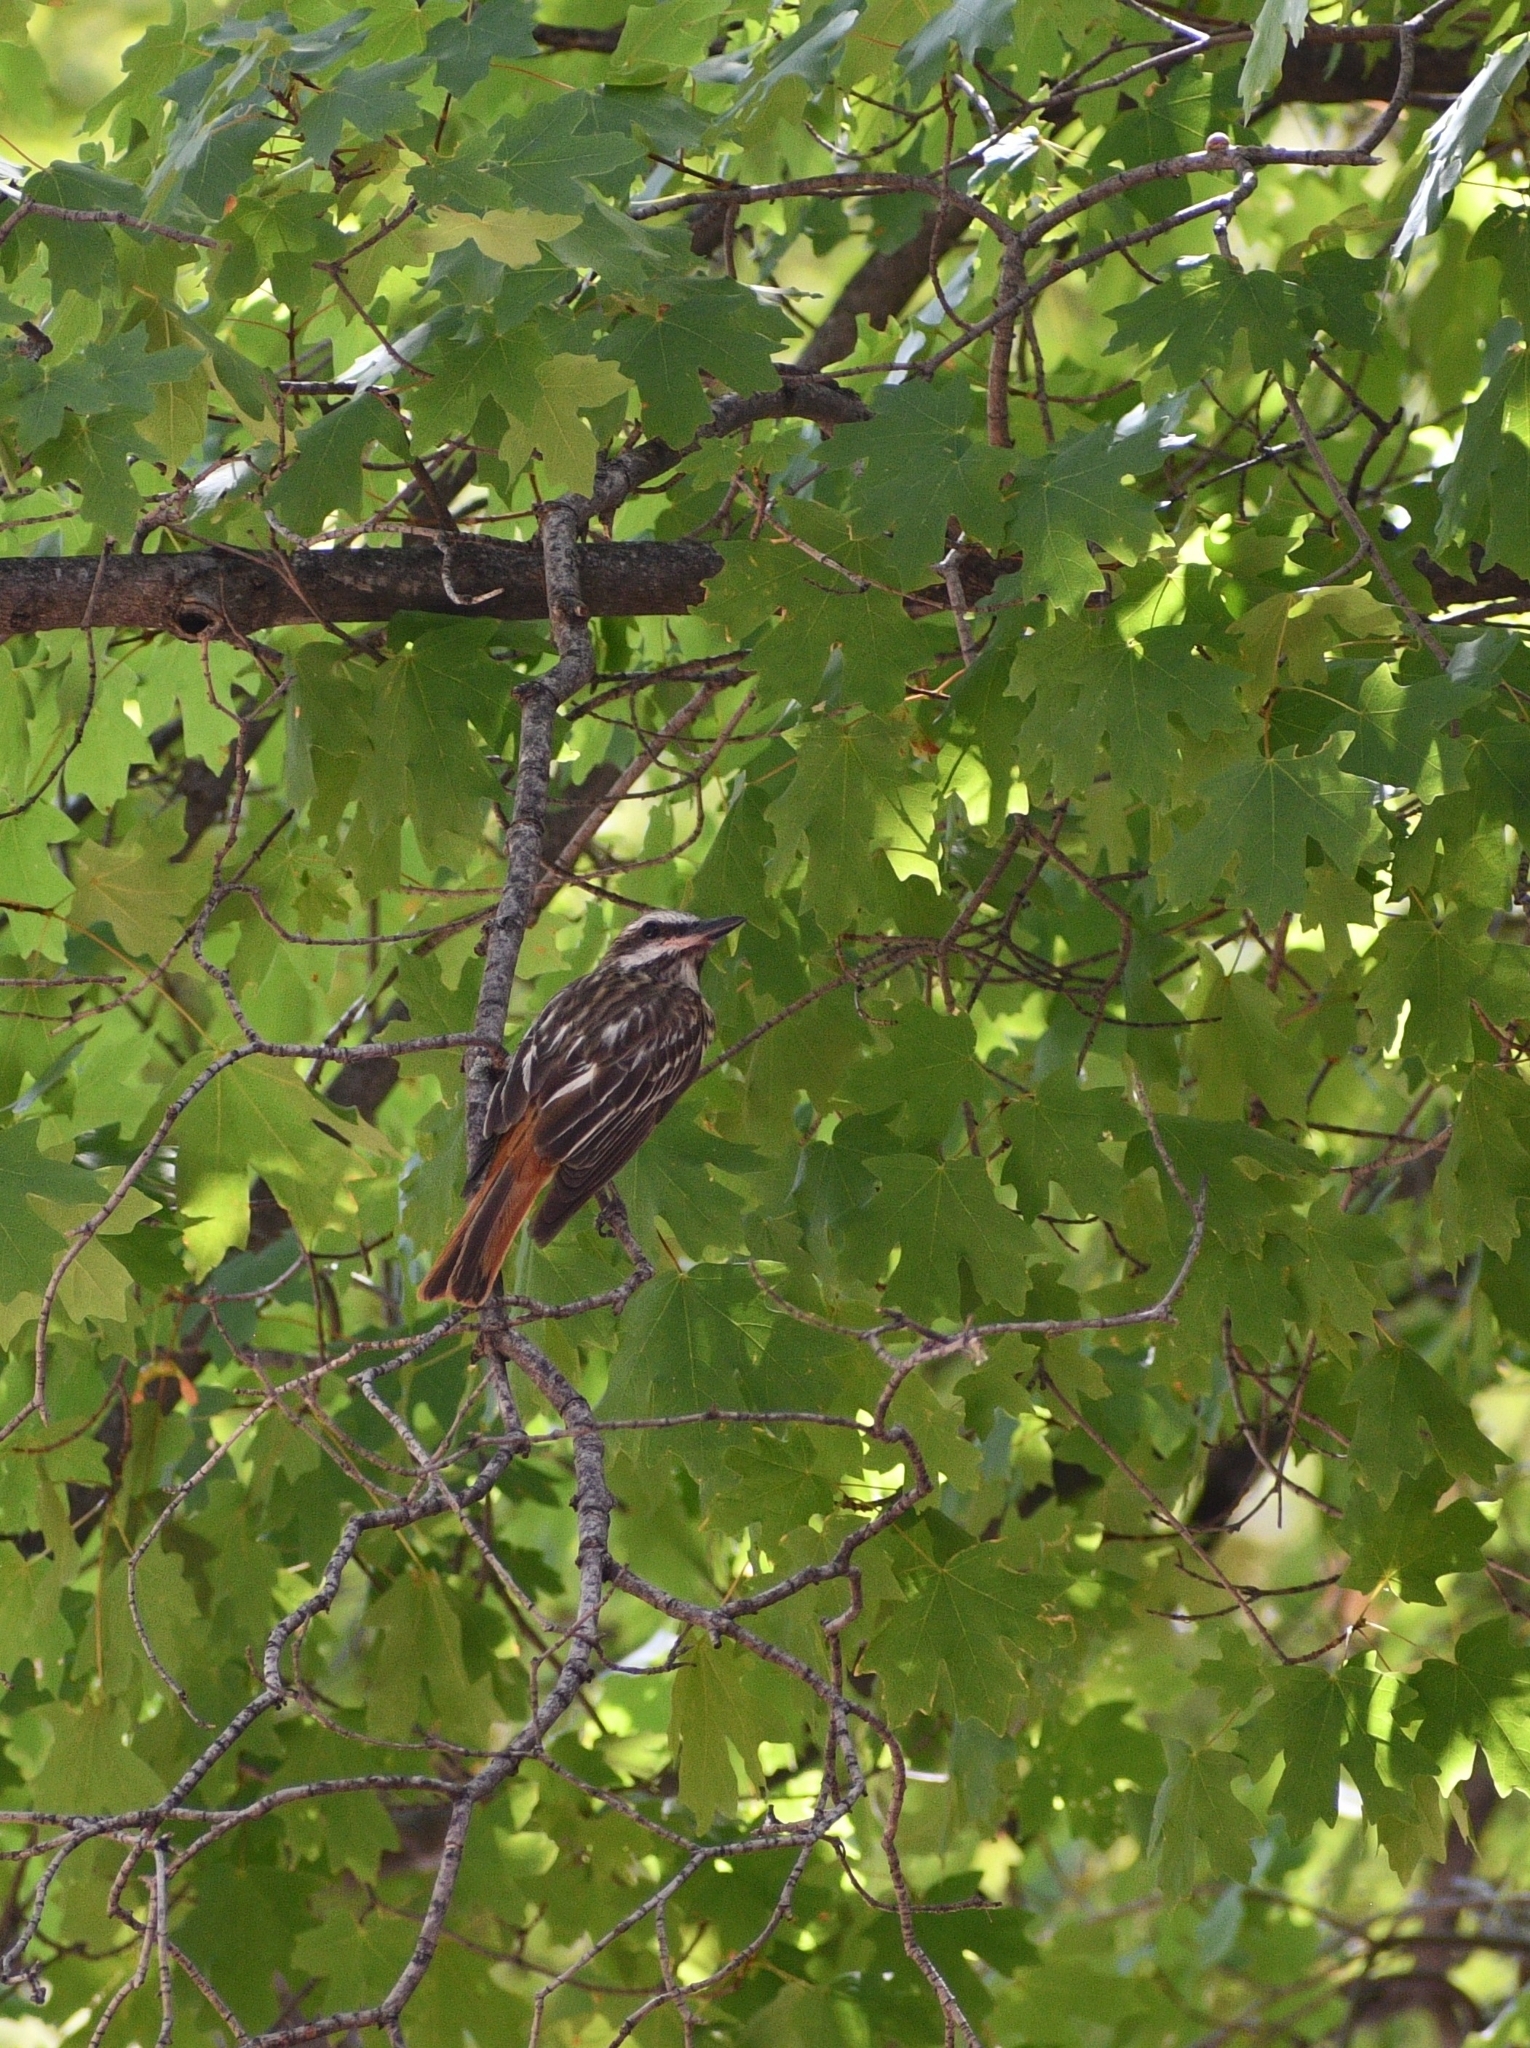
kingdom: Animalia
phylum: Chordata
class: Aves
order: Passeriformes
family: Tyrannidae
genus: Myiodynastes
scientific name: Myiodynastes luteiventris
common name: Sulphur-bellied flycatcher
